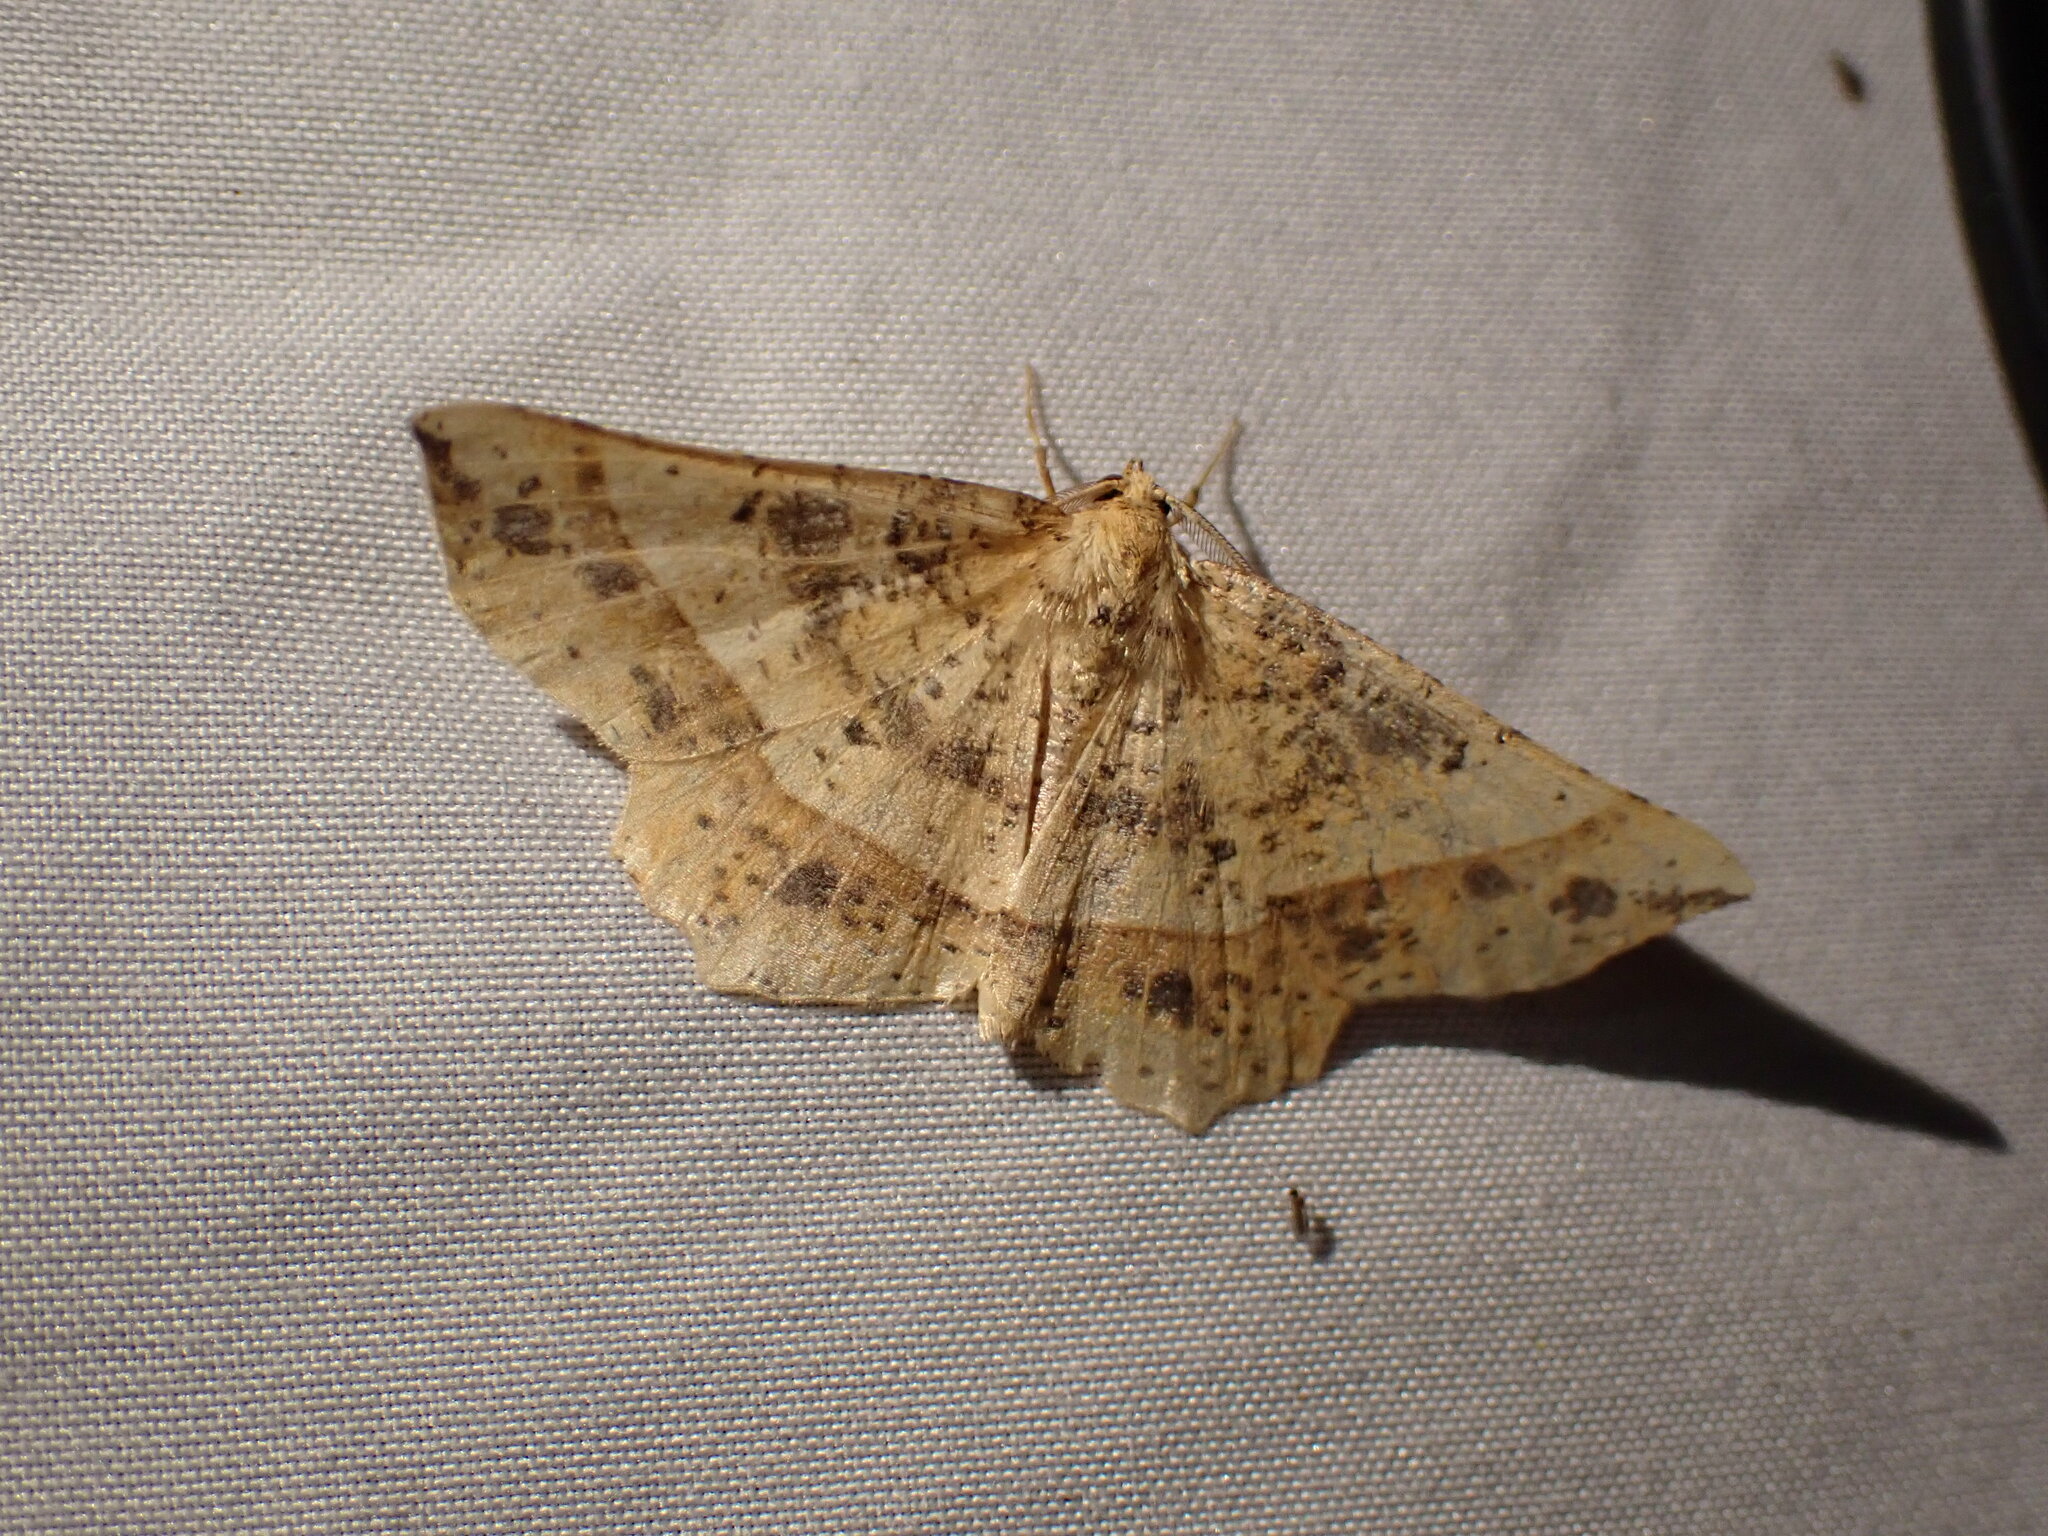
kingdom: Animalia
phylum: Arthropoda
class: Insecta
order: Lepidoptera
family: Geometridae
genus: Euchlaena
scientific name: Euchlaena tigrinaria
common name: Mottled euchlaena moth
